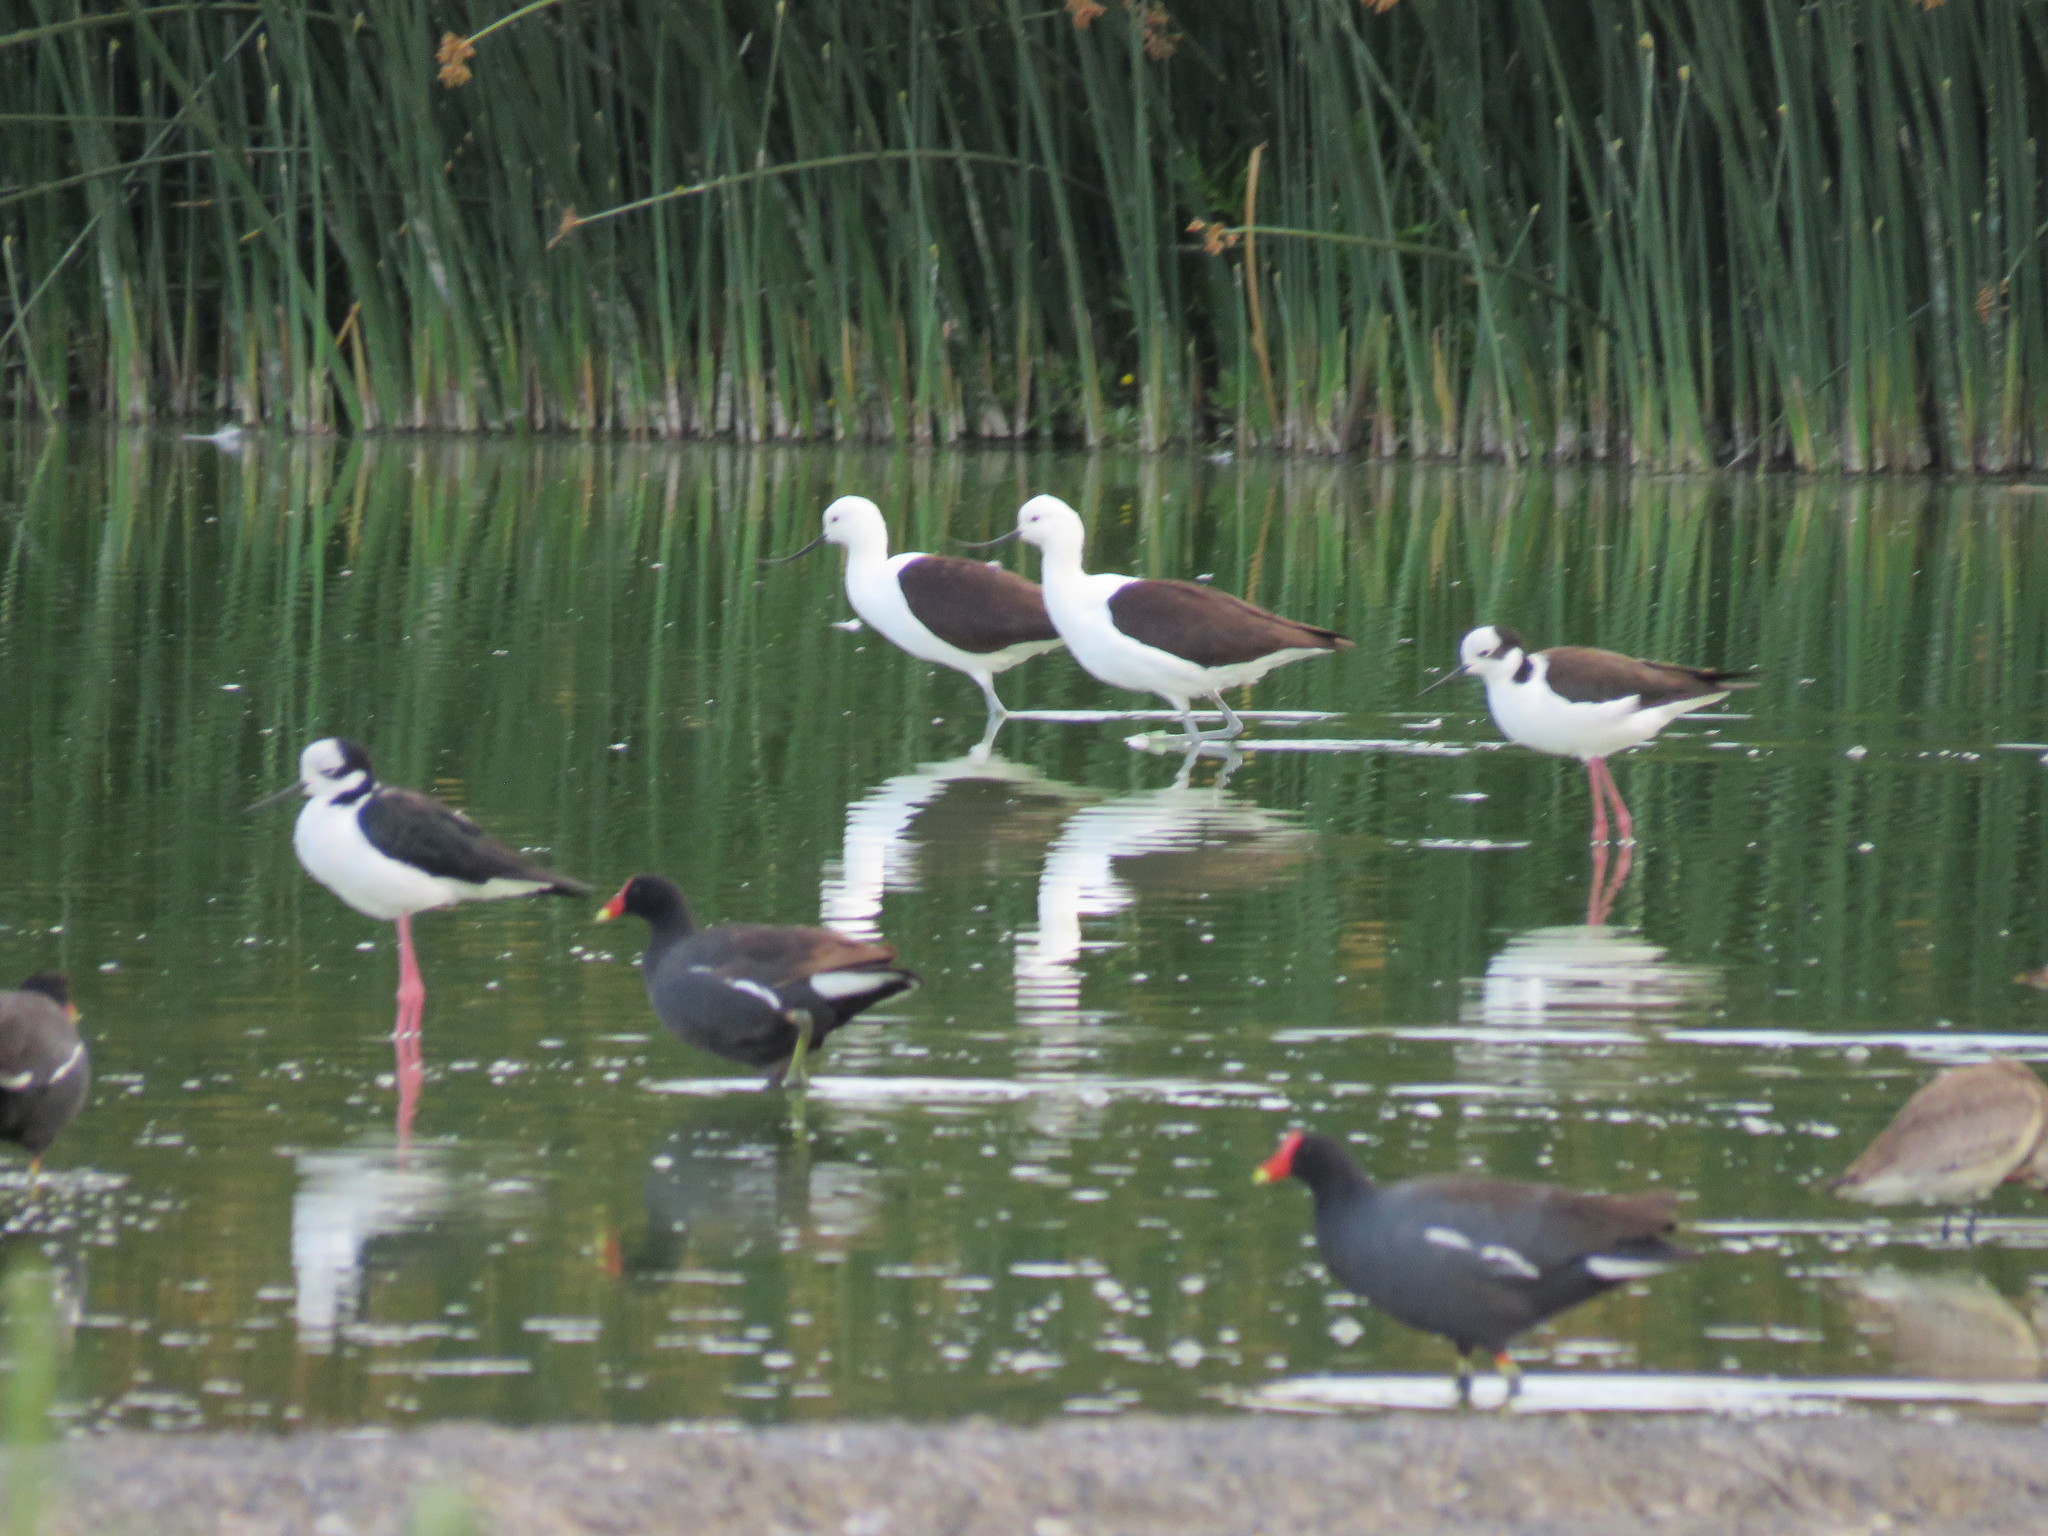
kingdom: Animalia
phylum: Chordata
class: Aves
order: Charadriiformes
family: Recurvirostridae
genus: Recurvirostra
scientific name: Recurvirostra andina
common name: Andean avocet
